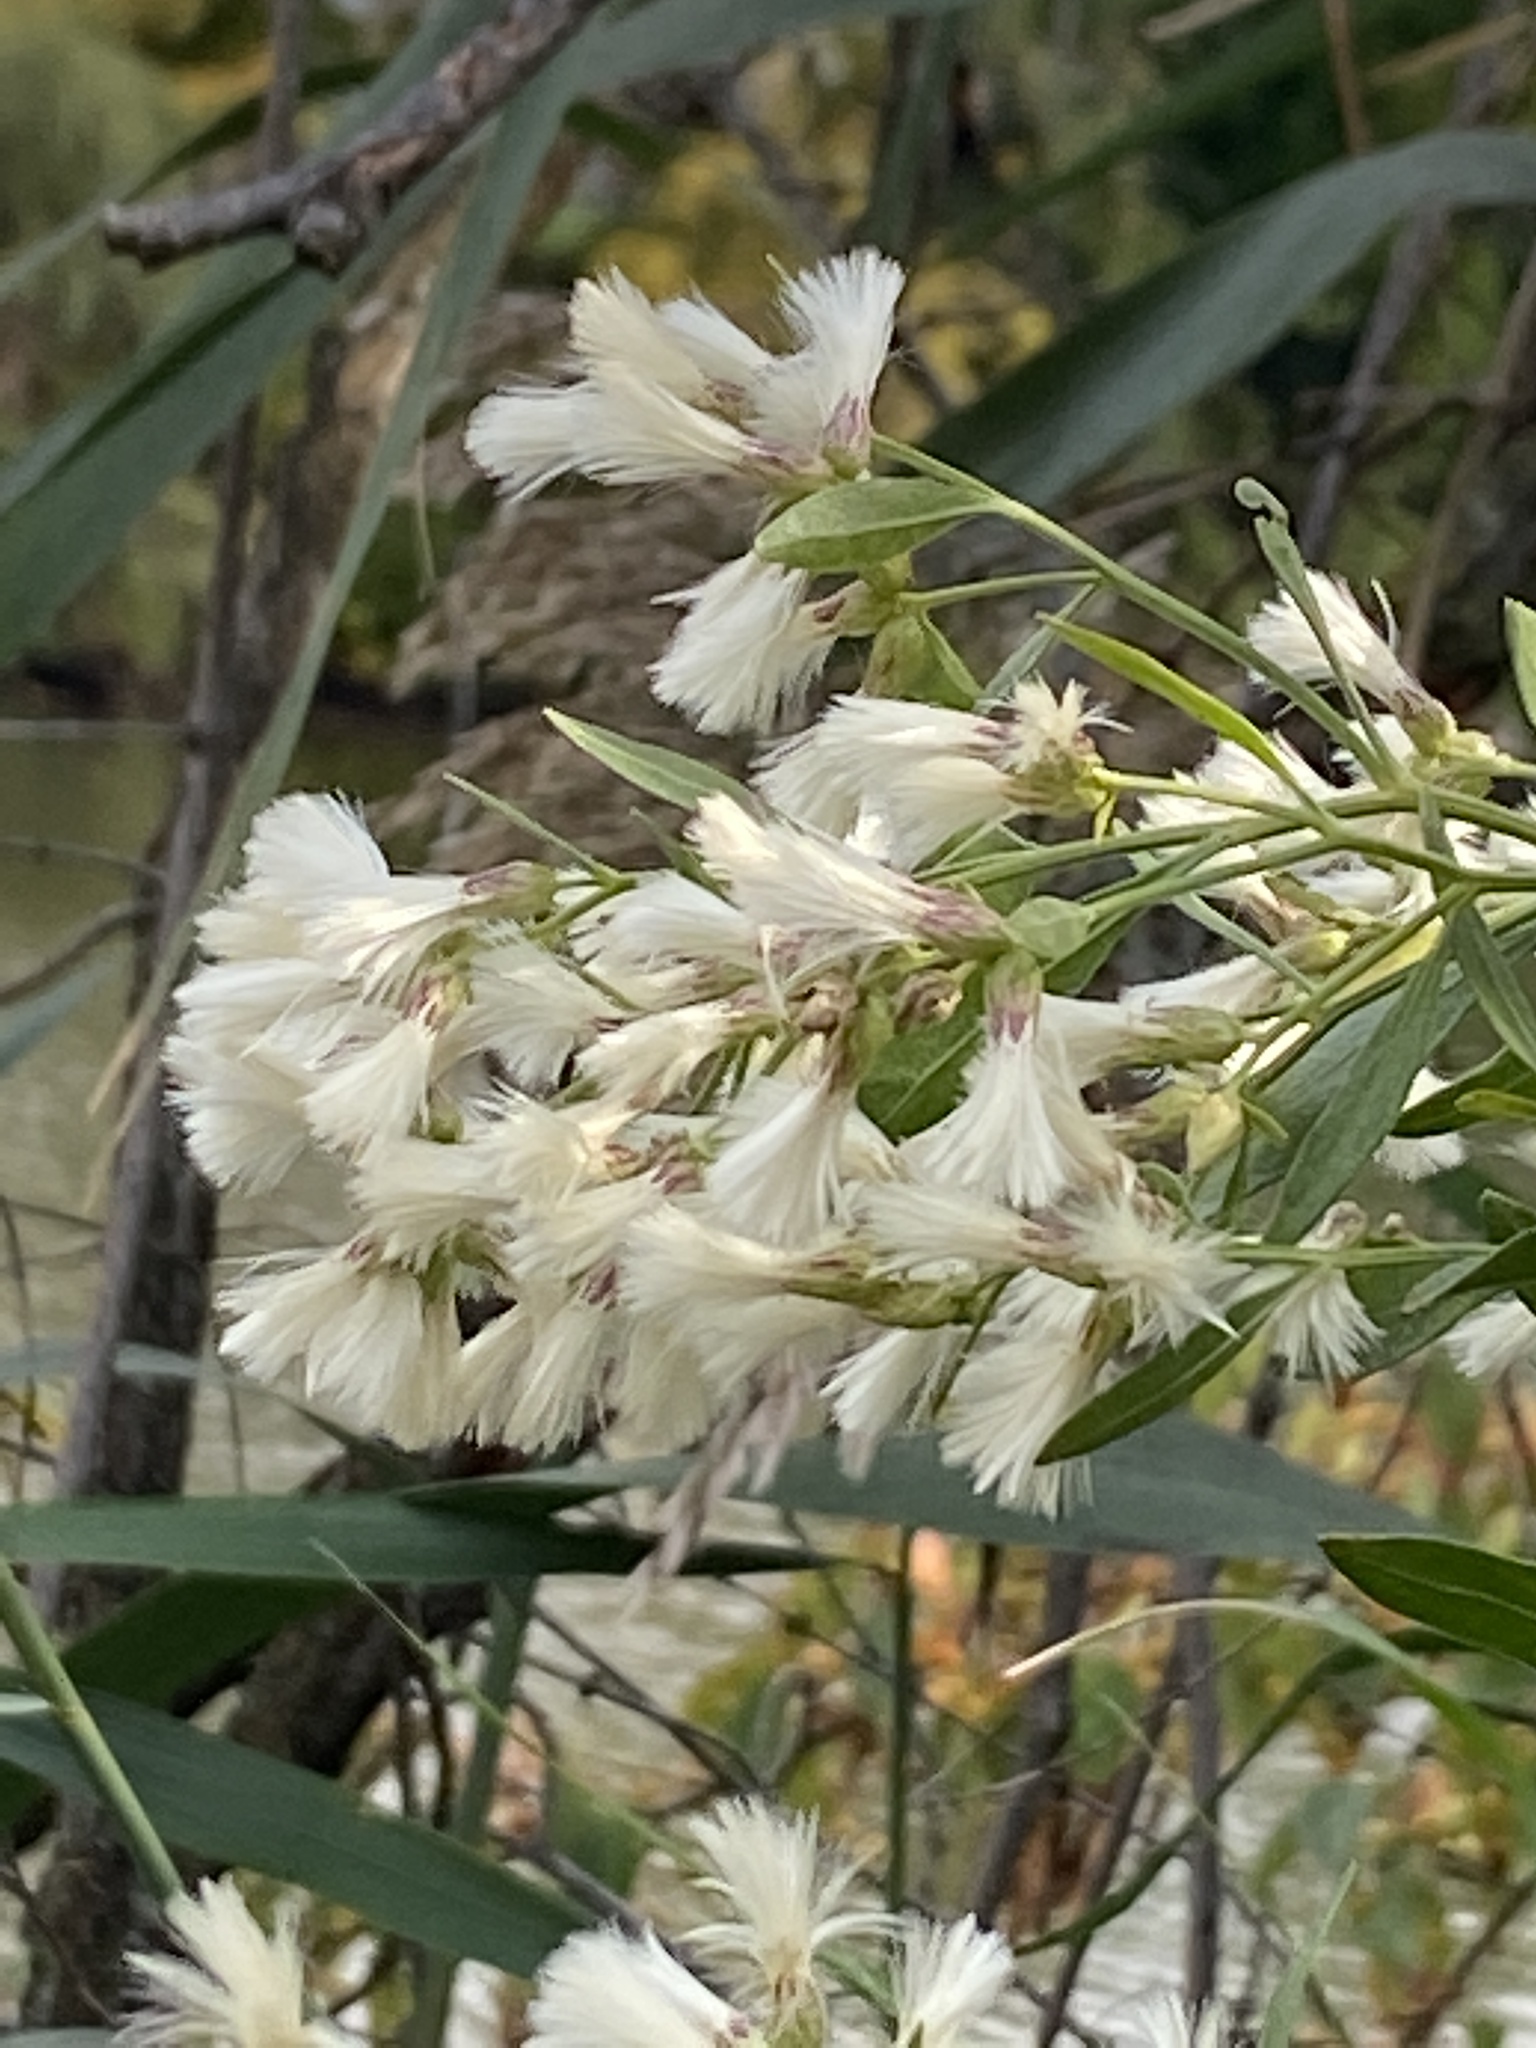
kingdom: Plantae
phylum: Tracheophyta
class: Magnoliopsida
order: Asterales
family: Asteraceae
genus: Baccharis
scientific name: Baccharis halimifolia
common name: Eastern baccharis
